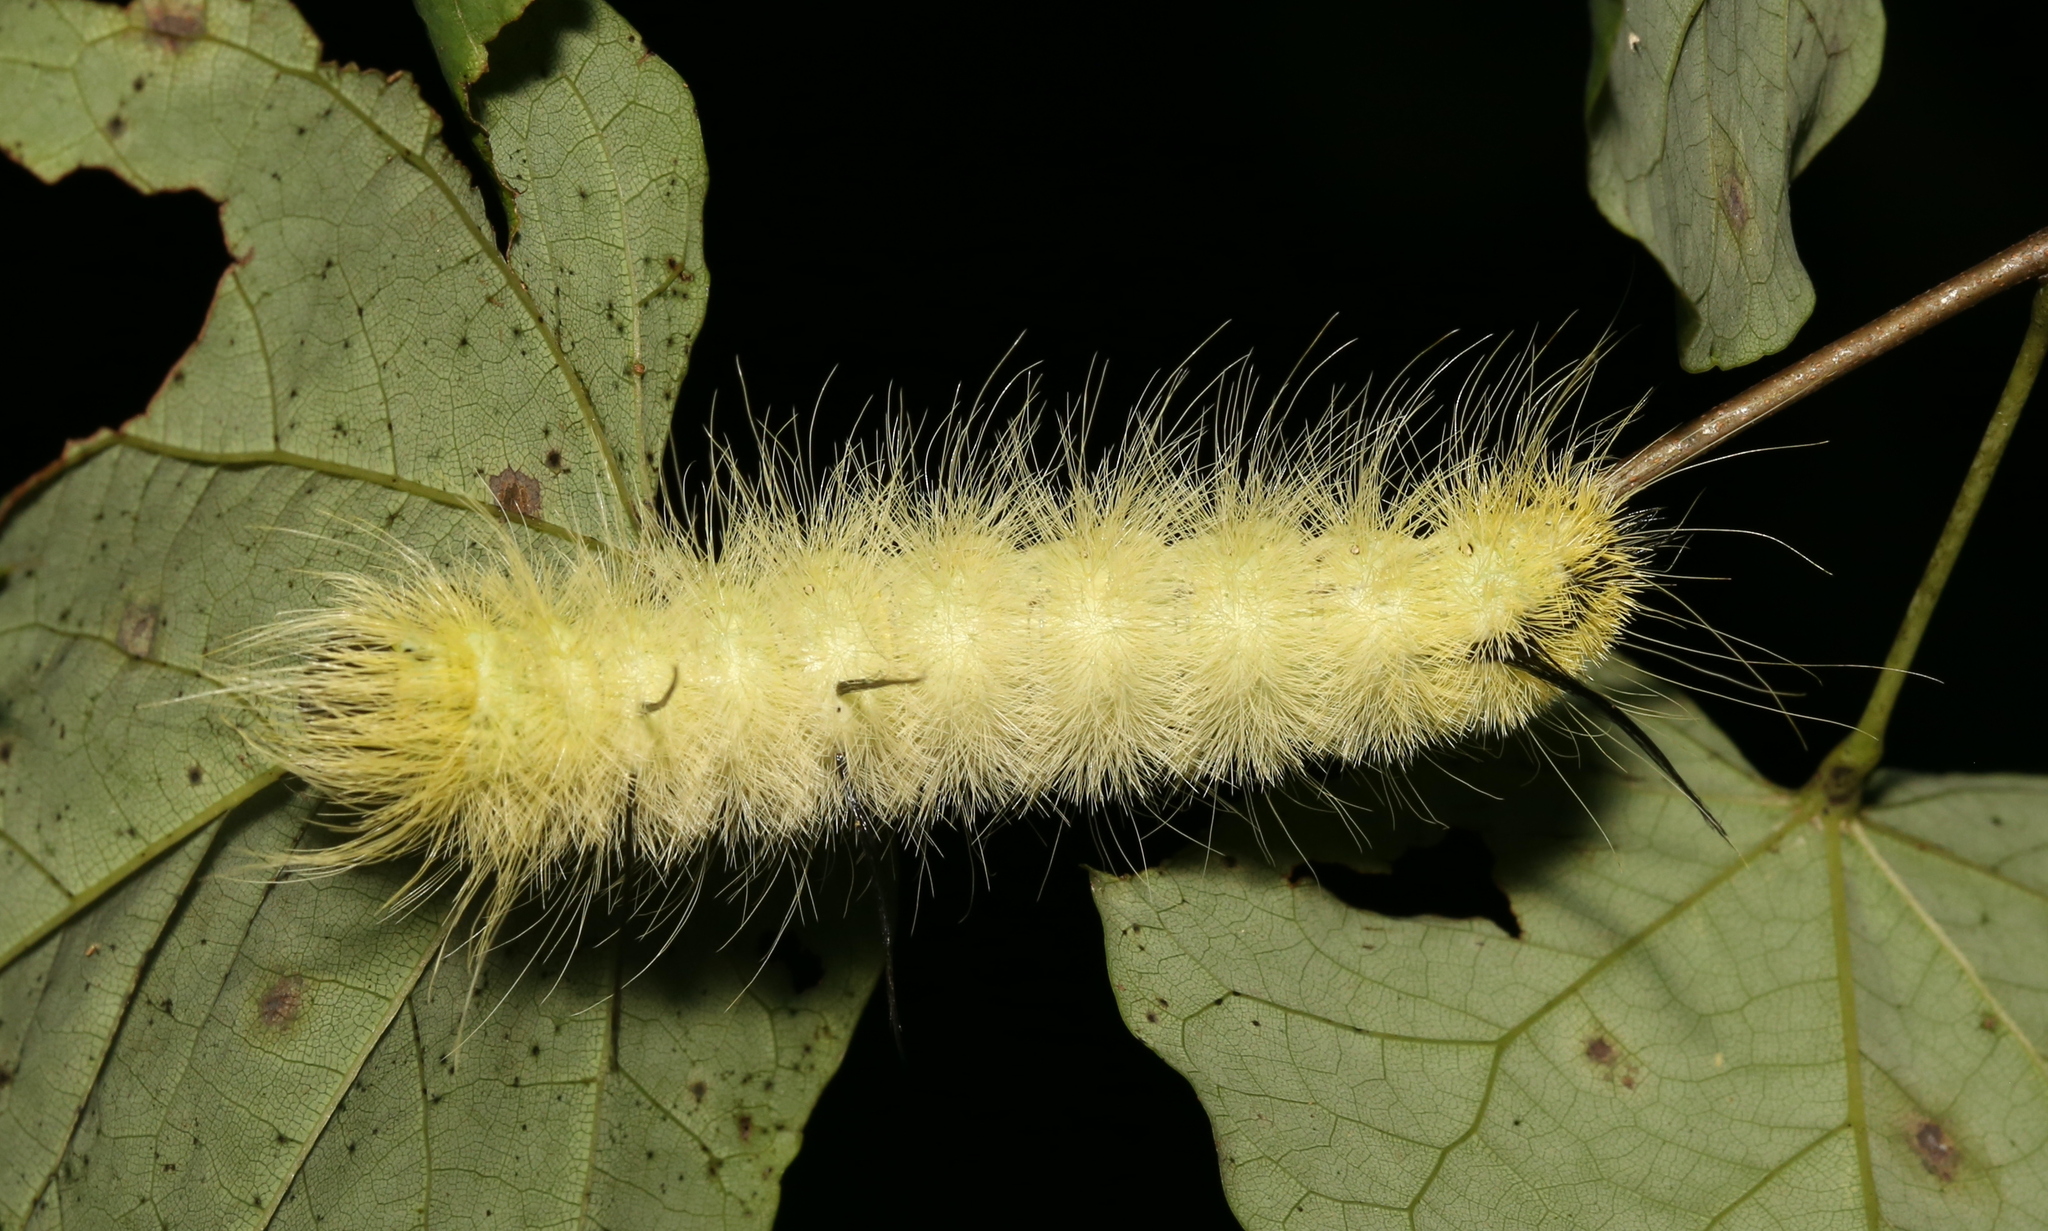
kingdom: Animalia
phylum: Arthropoda
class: Insecta
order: Lepidoptera
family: Noctuidae
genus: Acronicta
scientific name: Acronicta americana
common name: American dagger
